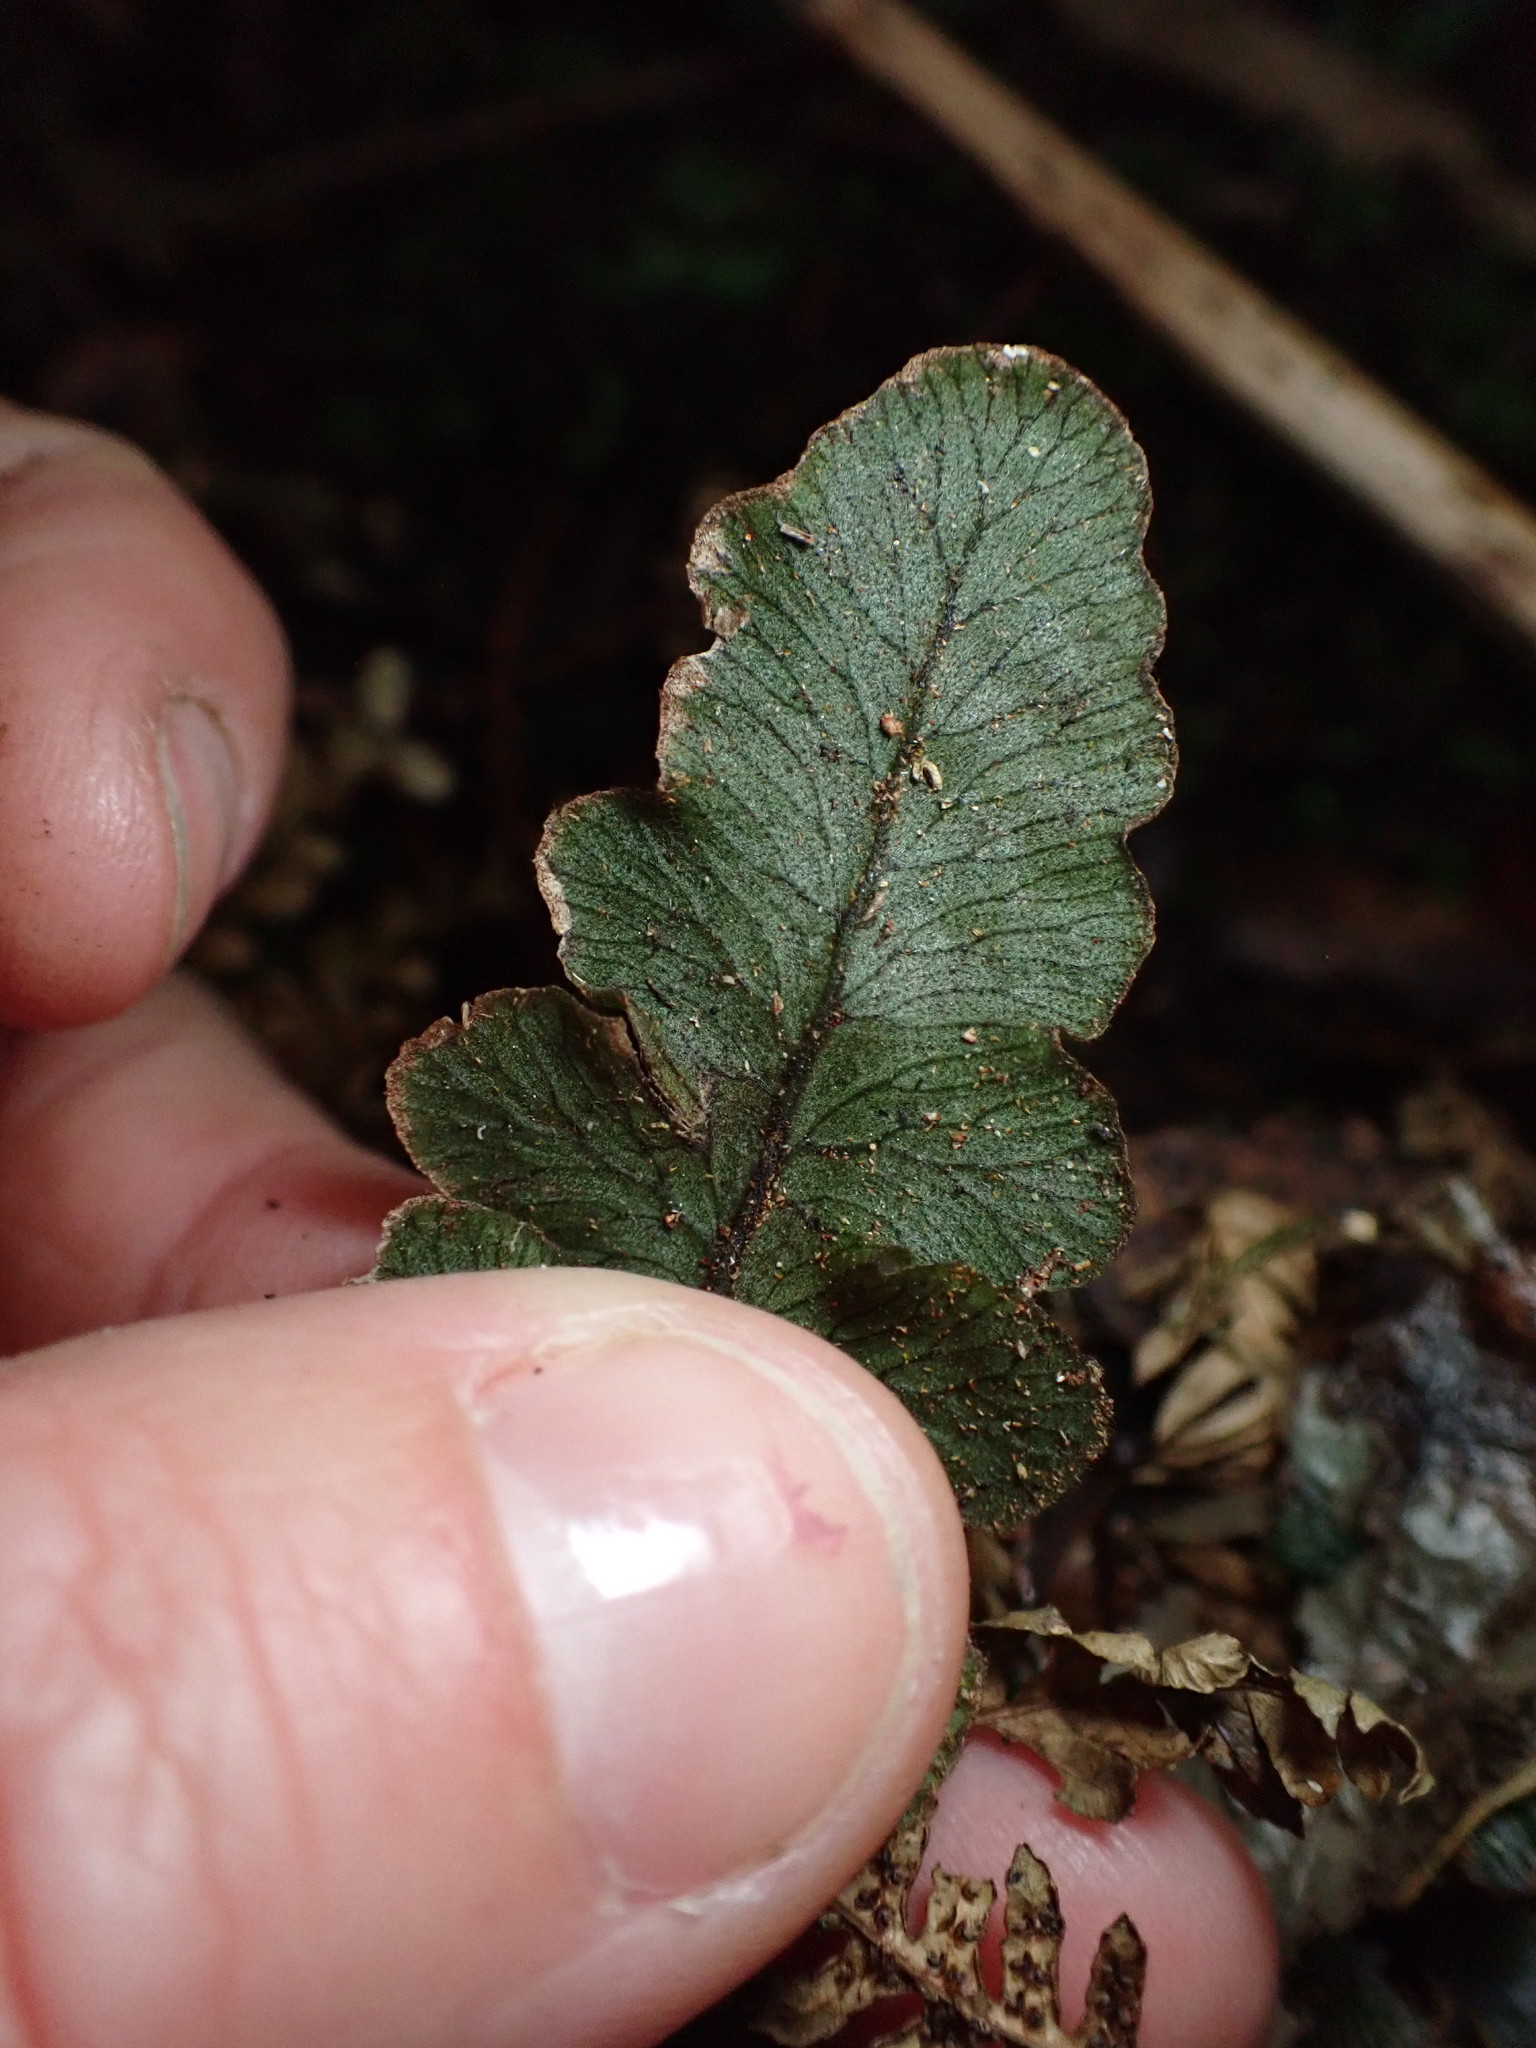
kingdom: Plantae
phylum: Tracheophyta
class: Polypodiopsida
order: Polypodiales
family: Blechnaceae
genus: Cranfillia
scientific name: Cranfillia nigra
